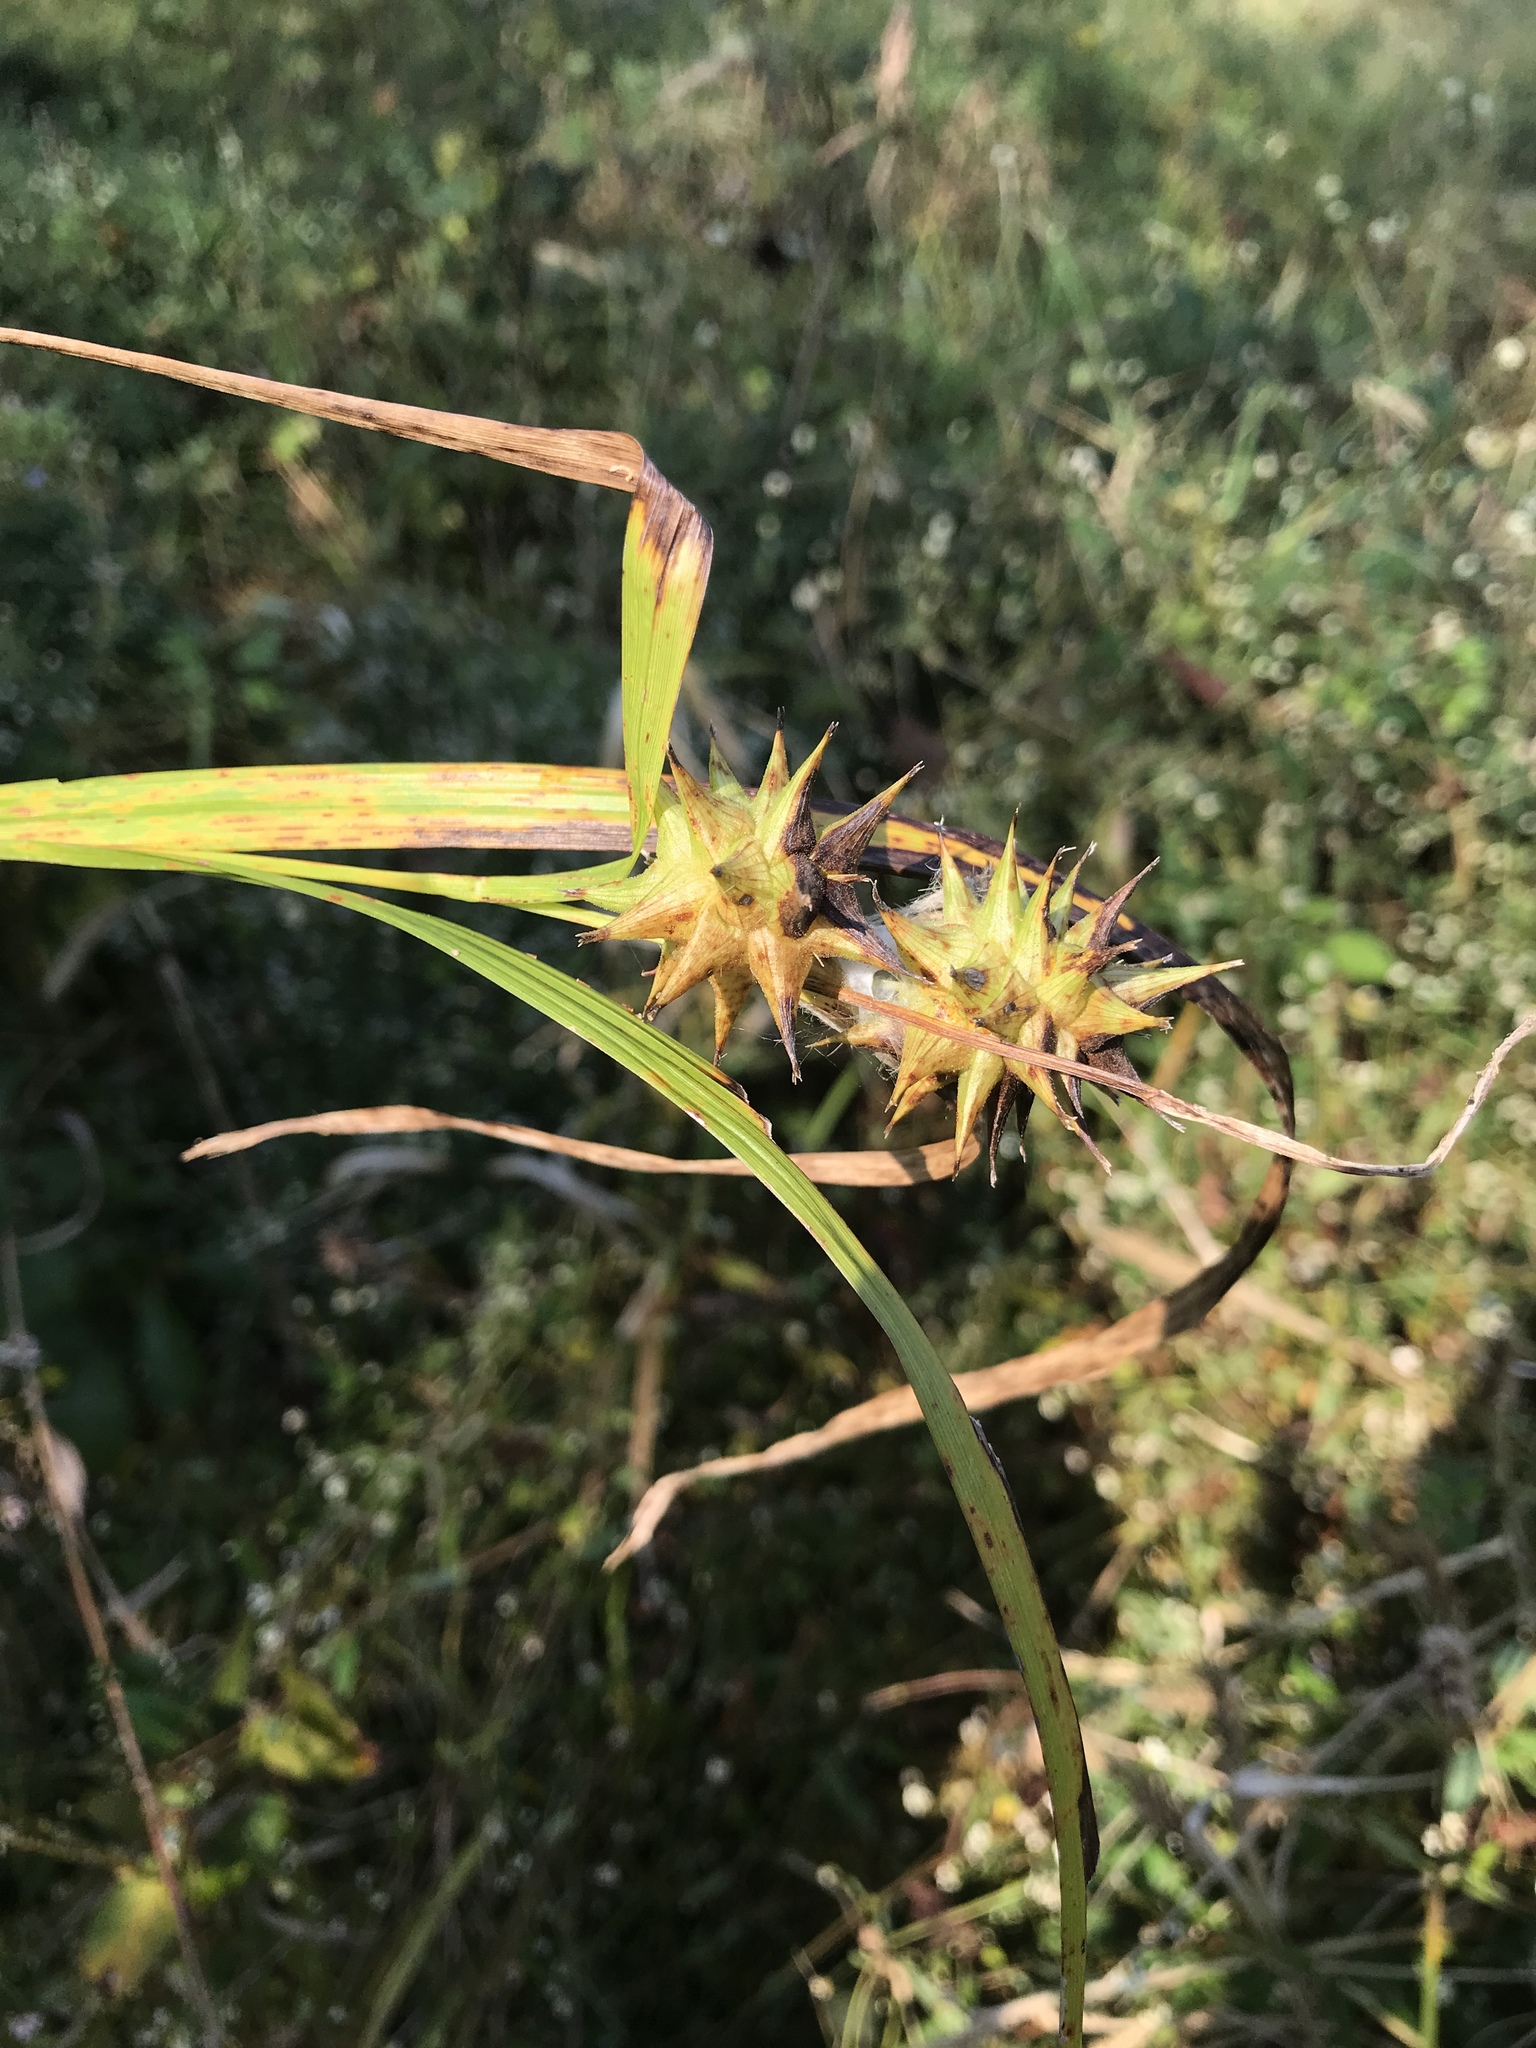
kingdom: Plantae
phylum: Tracheophyta
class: Liliopsida
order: Poales
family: Cyperaceae
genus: Carex
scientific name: Carex grayi
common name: Asa gray's sedge
